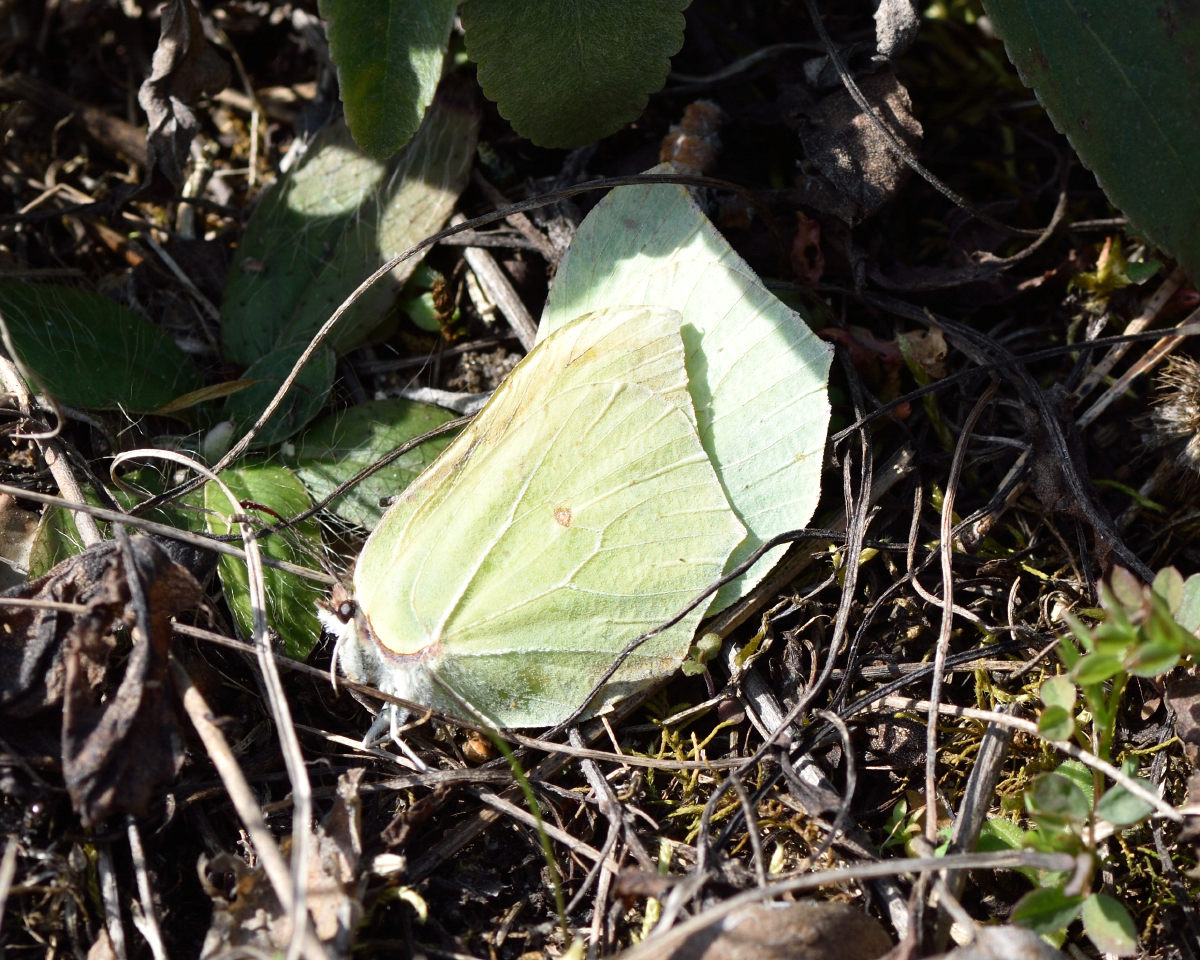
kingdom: Animalia
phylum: Arthropoda
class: Insecta
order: Lepidoptera
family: Pieridae
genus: Gonepteryx
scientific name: Gonepteryx rhamni
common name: Brimstone
